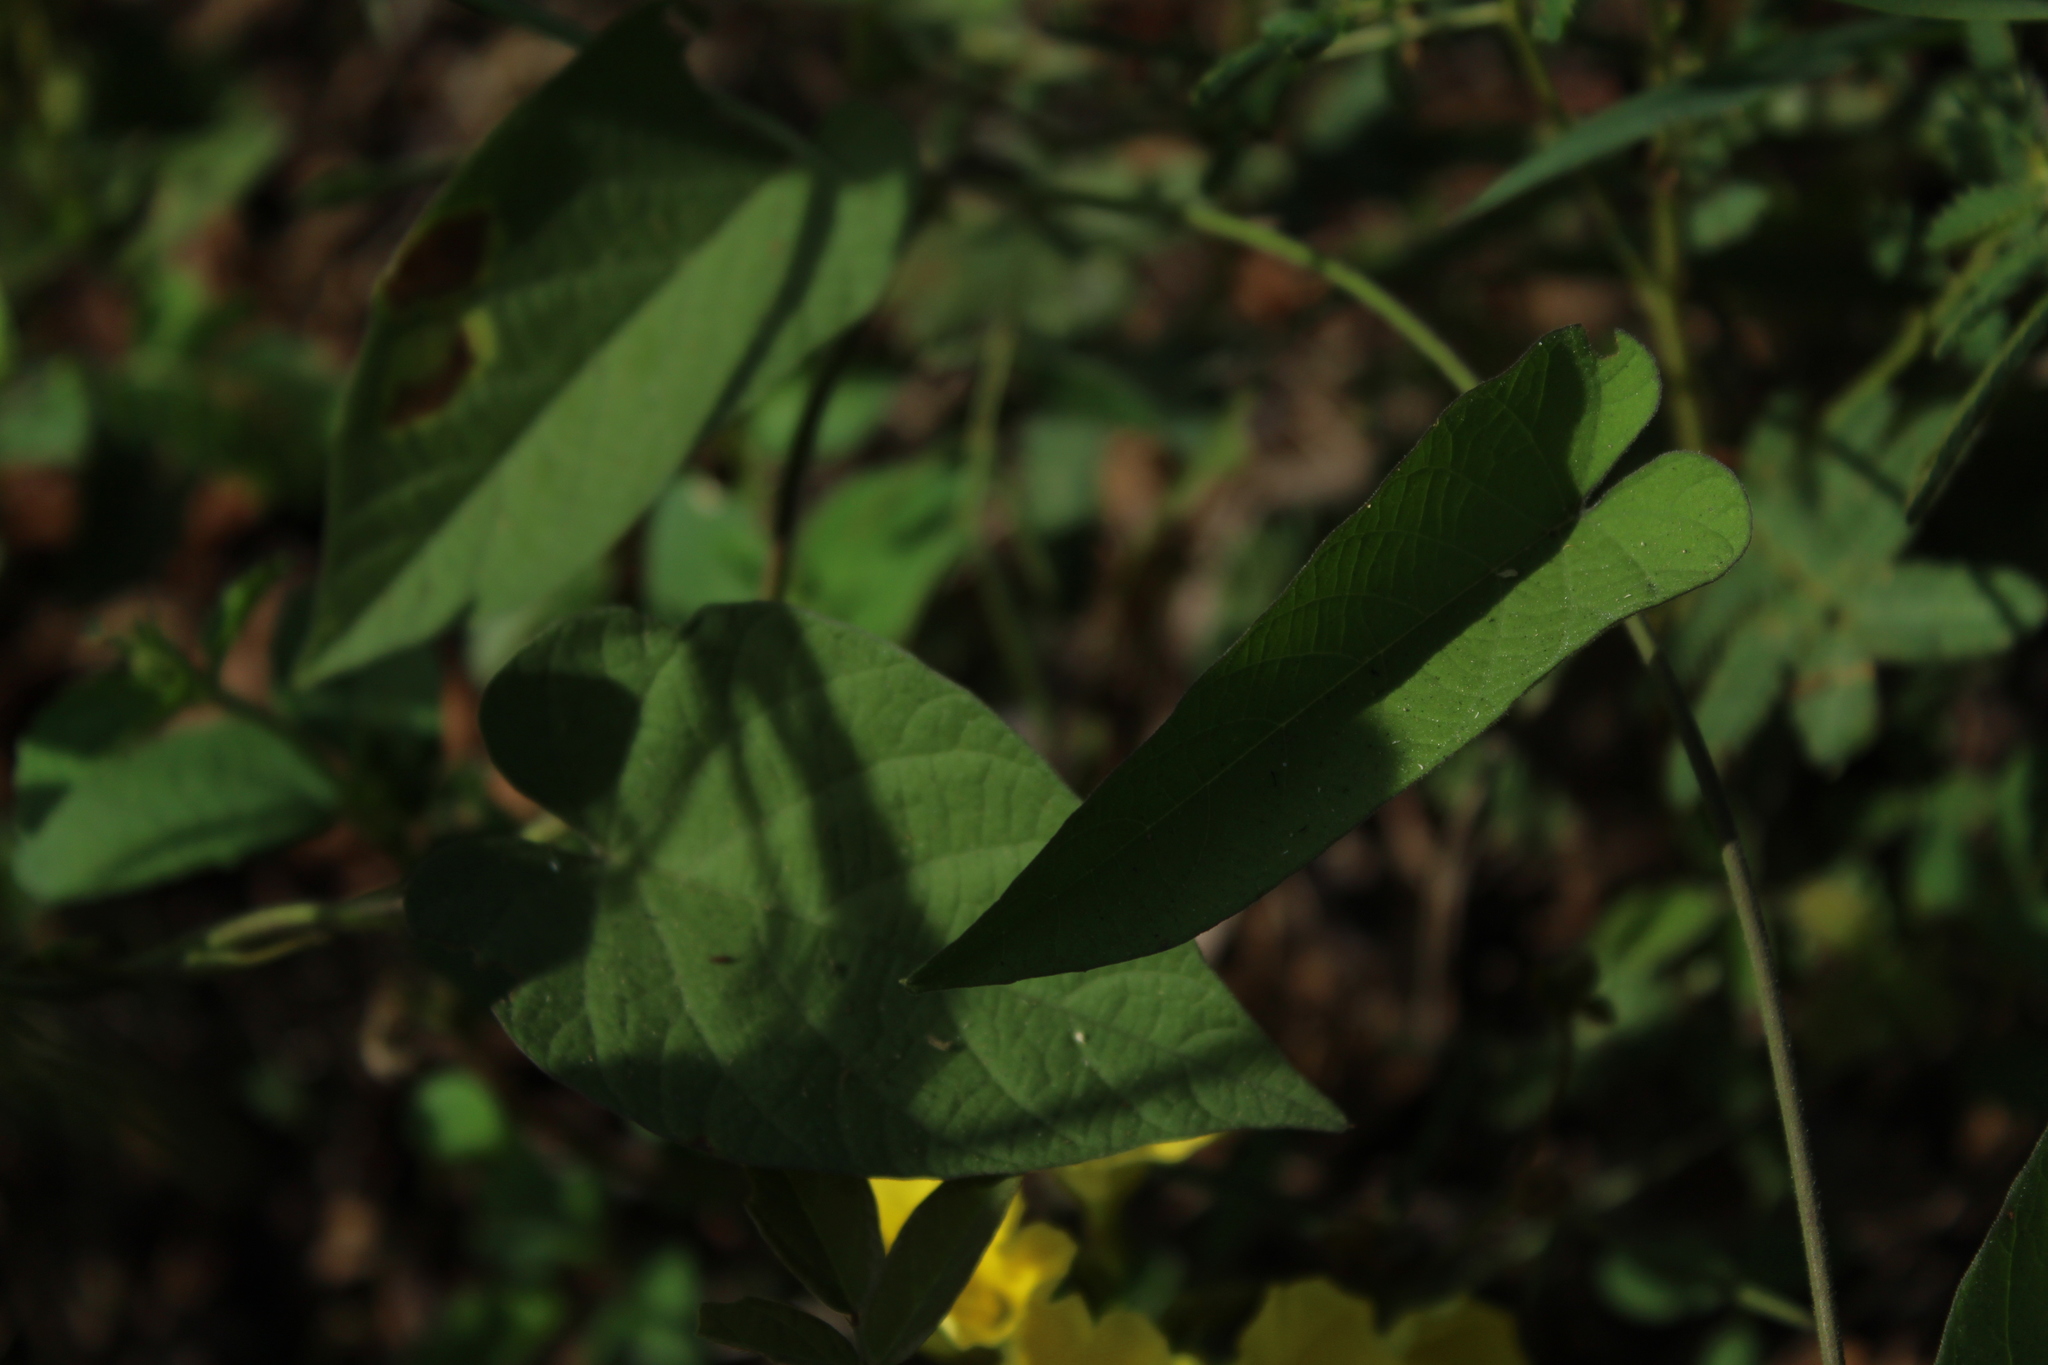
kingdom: Plantae
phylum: Tracheophyta
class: Magnoliopsida
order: Solanales
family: Convolvulaceae
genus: Camonea
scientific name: Camonea umbellata
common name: Hogvine
